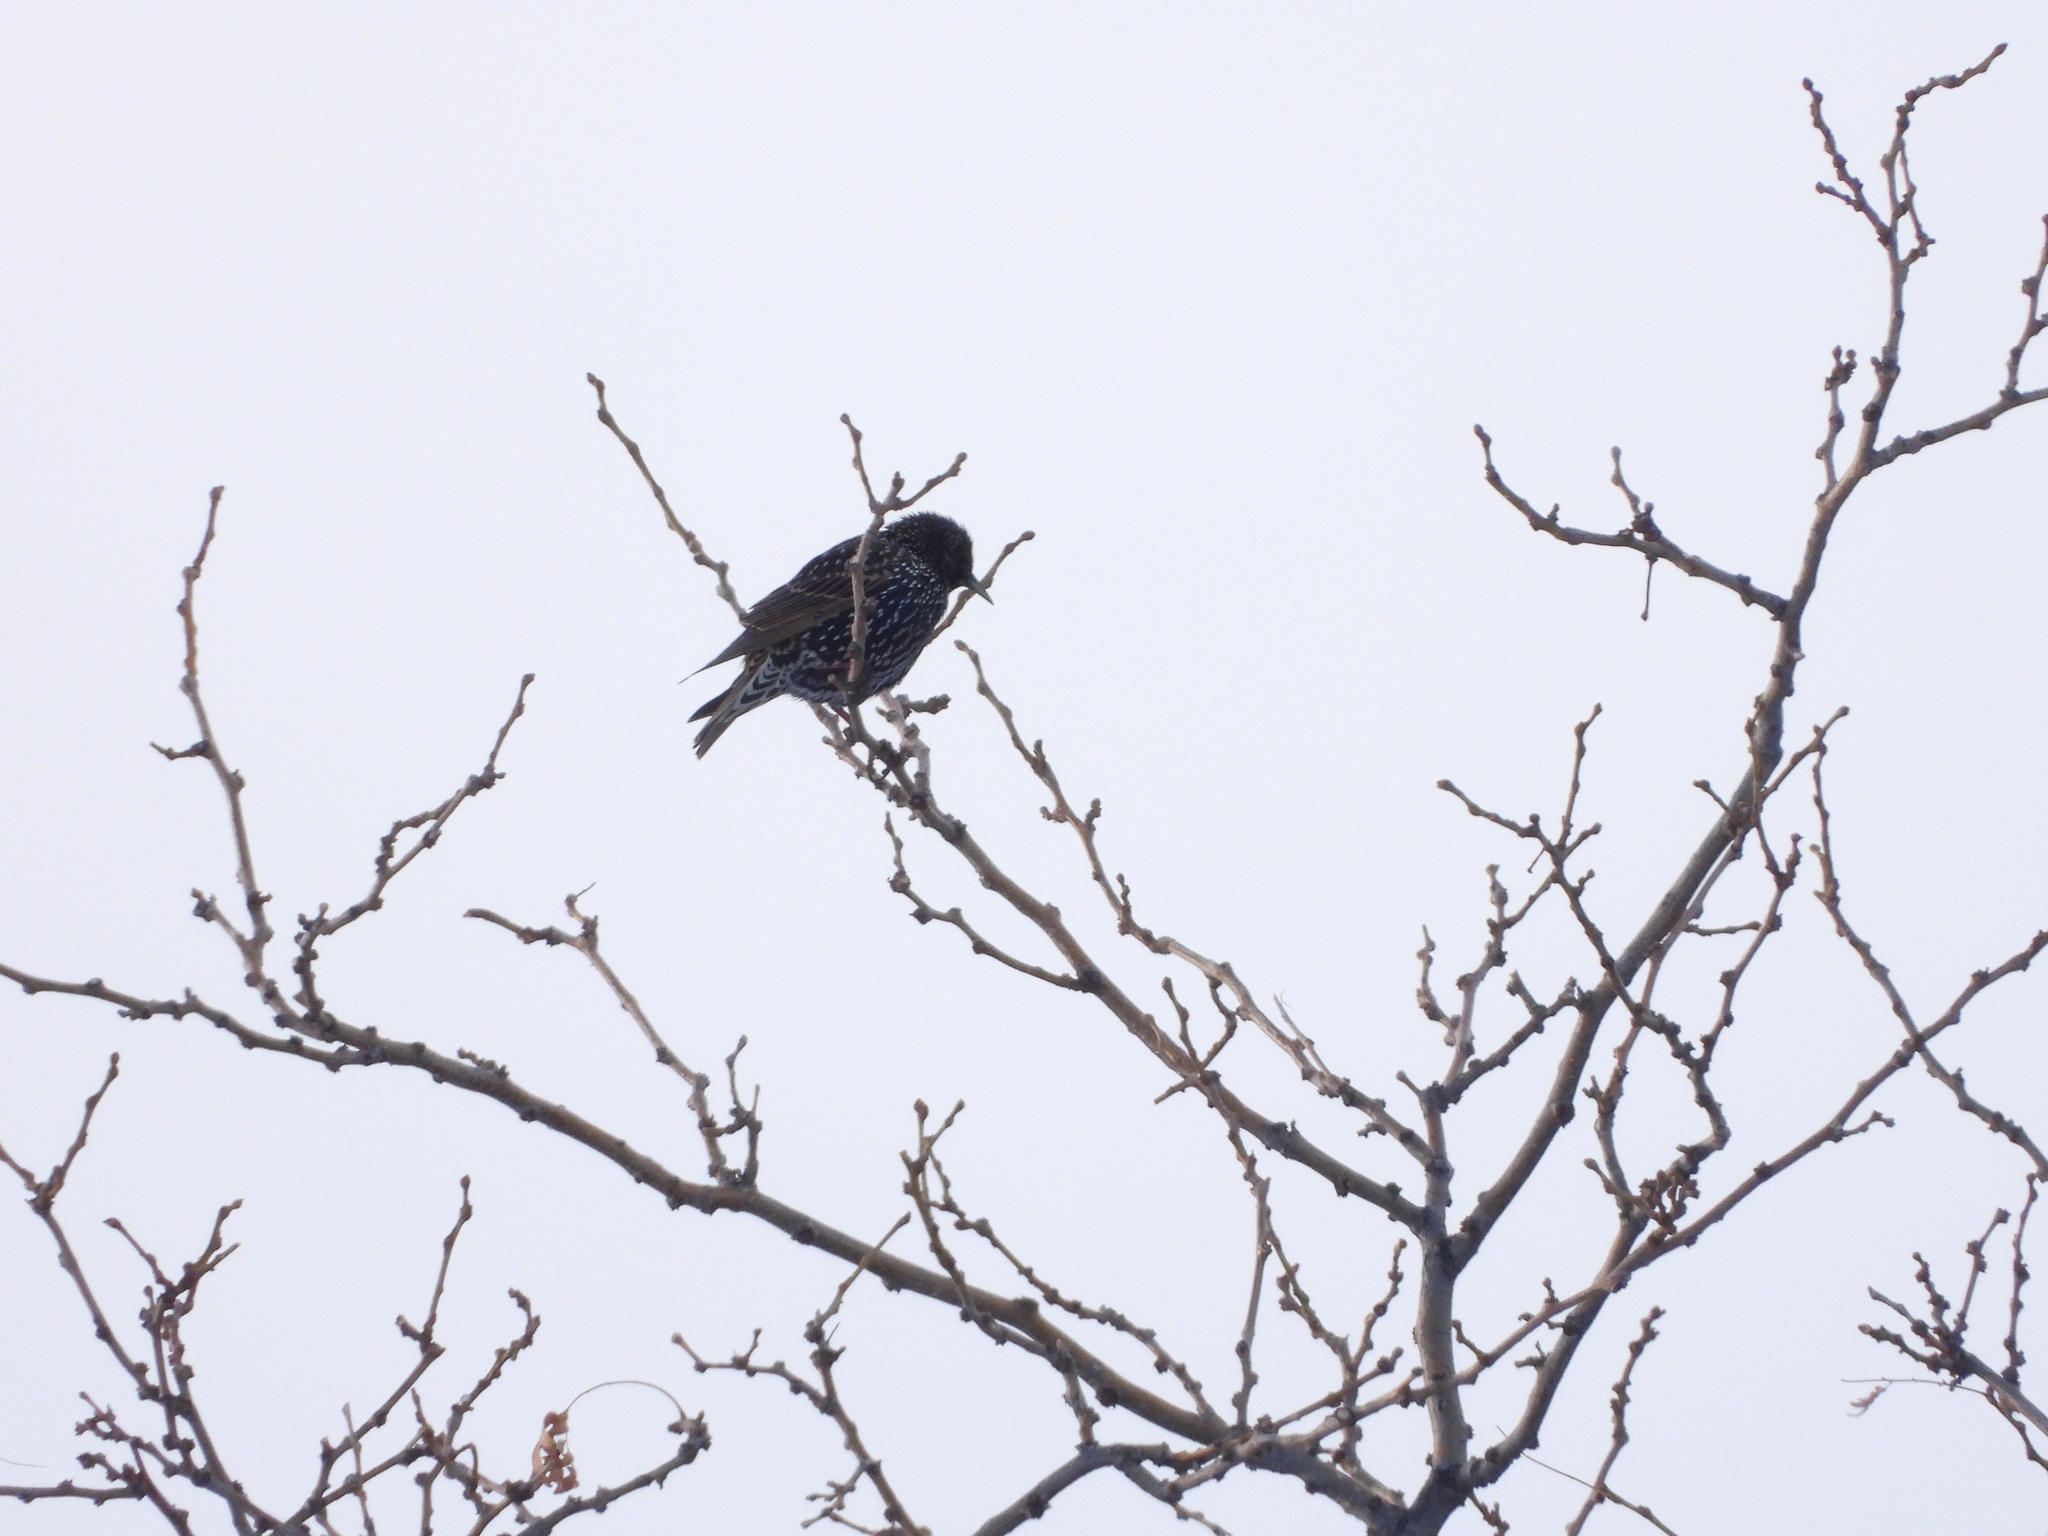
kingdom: Animalia
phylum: Chordata
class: Aves
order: Passeriformes
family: Sturnidae
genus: Sturnus
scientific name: Sturnus vulgaris
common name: Common starling
